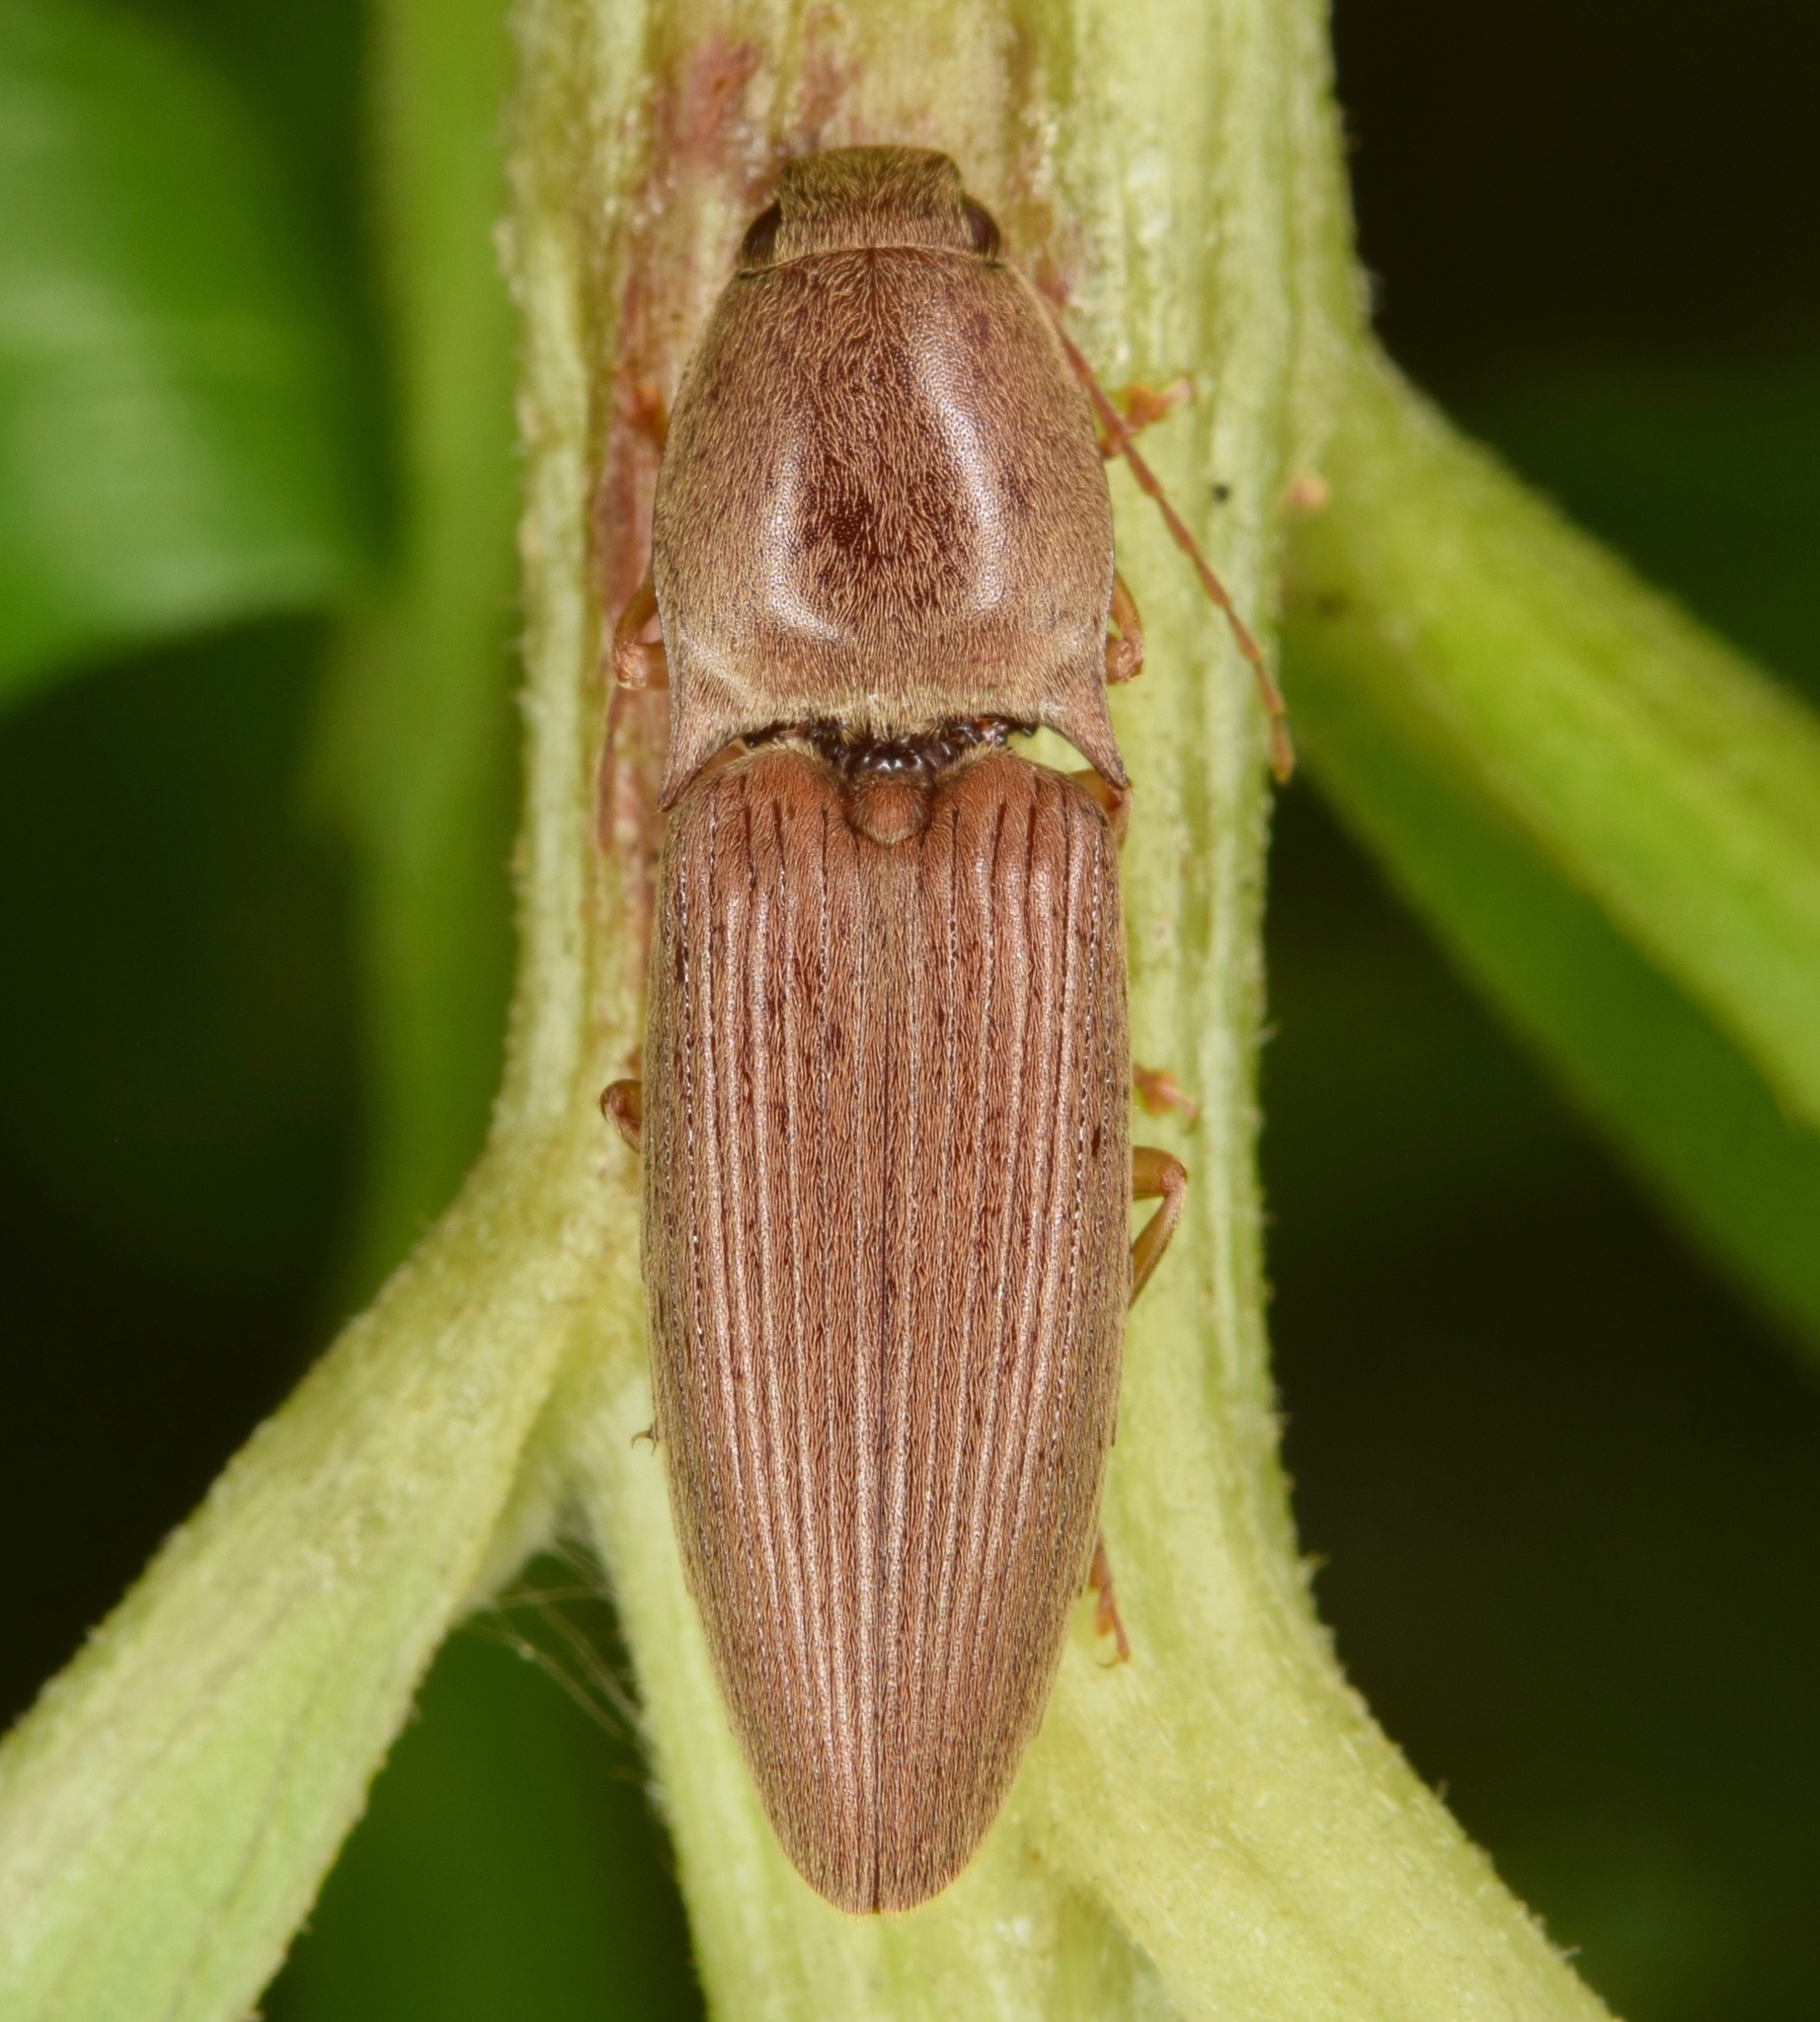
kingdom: Animalia
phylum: Arthropoda
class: Insecta
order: Coleoptera
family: Elateridae
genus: Monocrepidius
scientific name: Monocrepidius lividus
